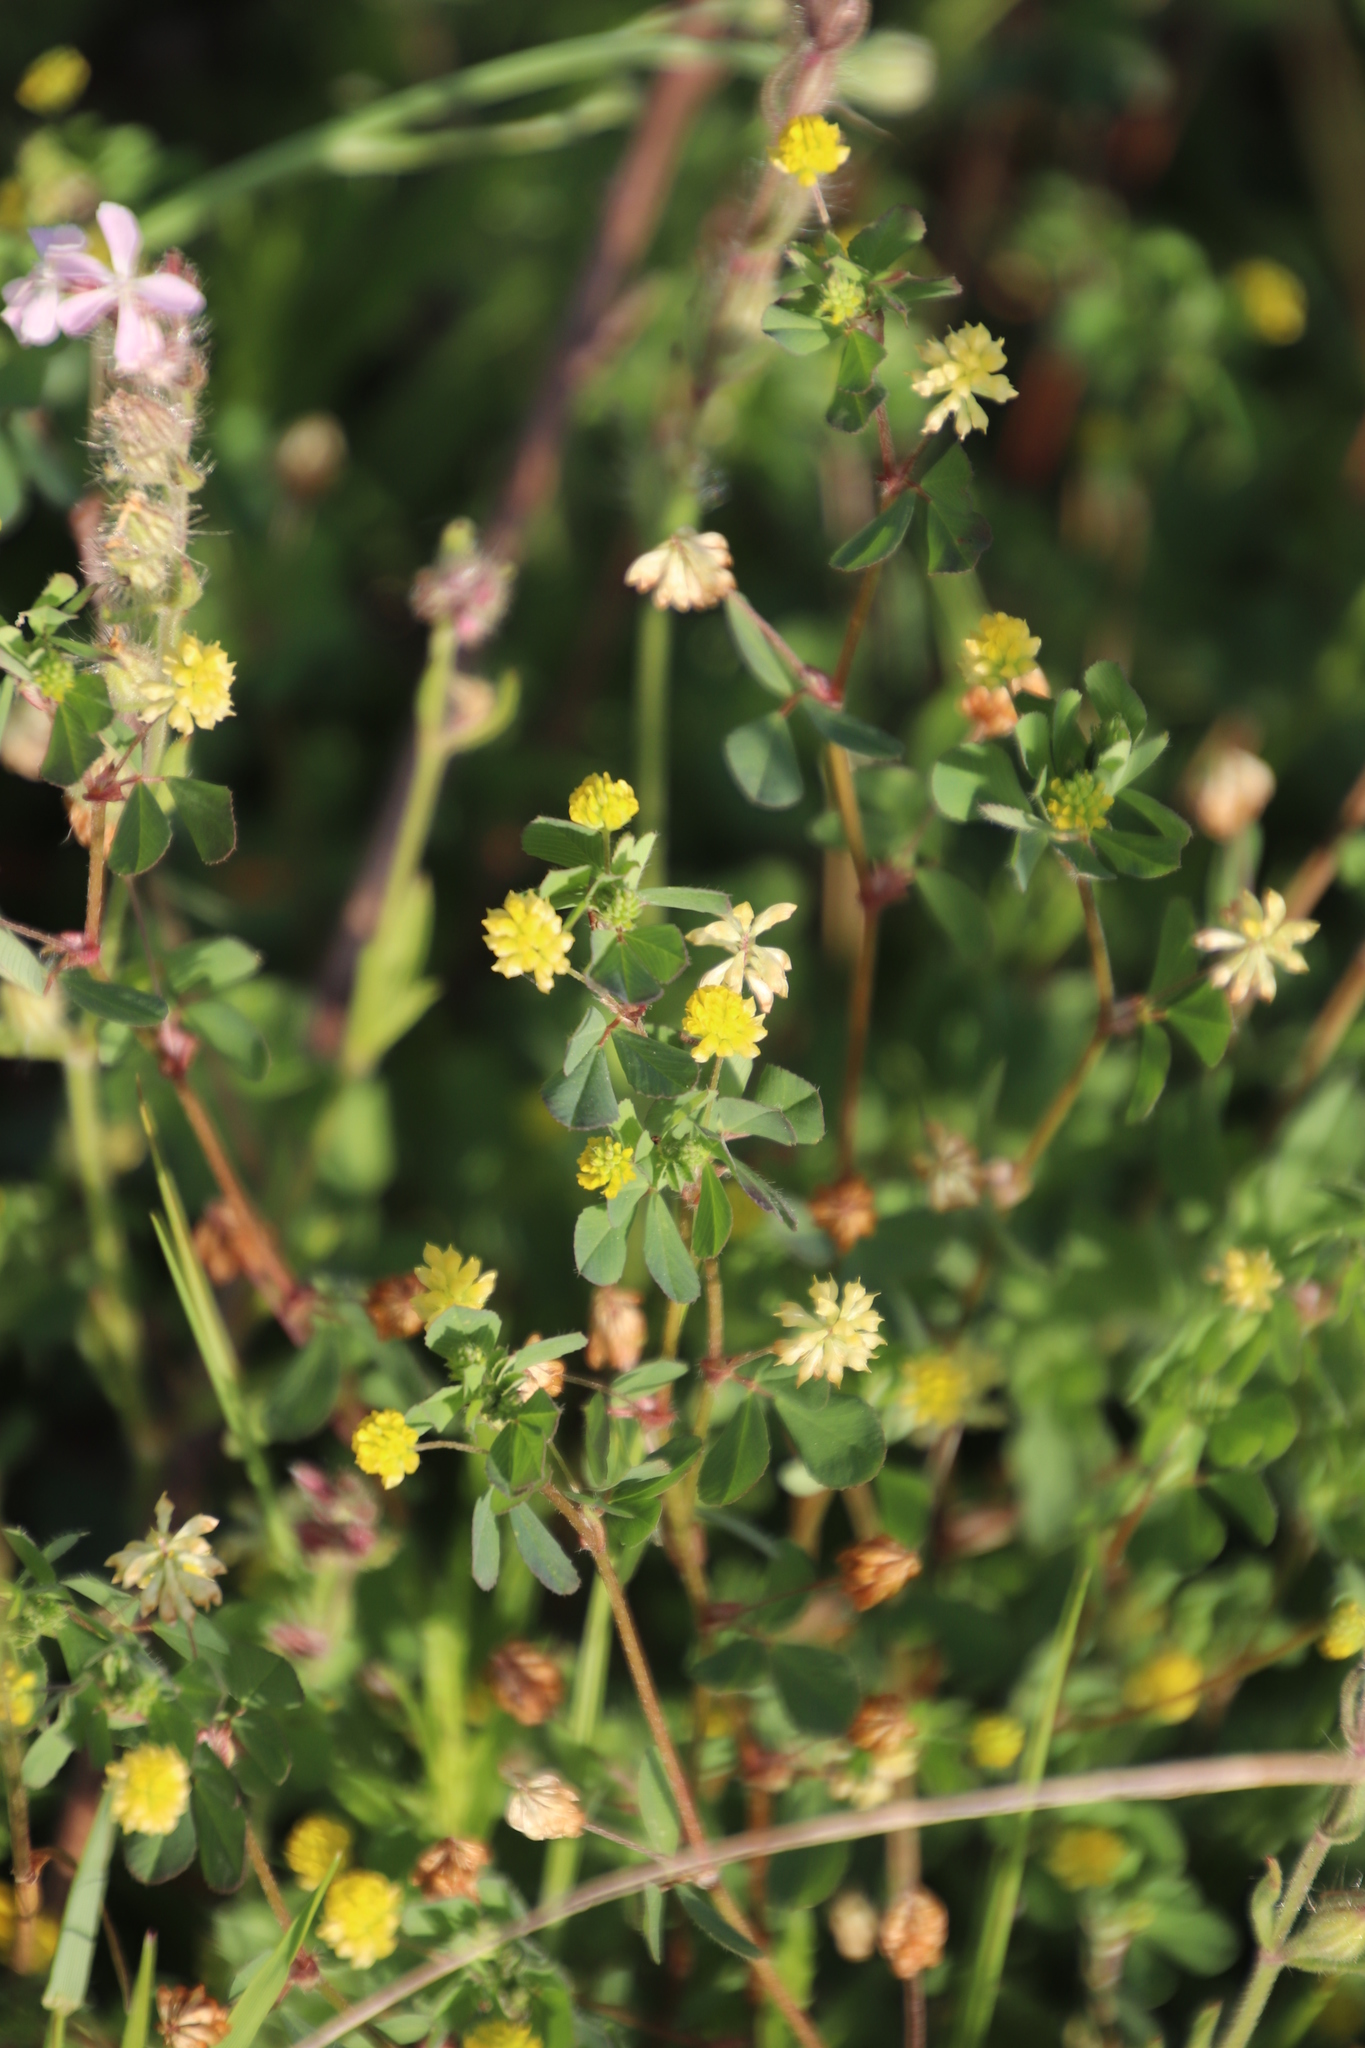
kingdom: Plantae
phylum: Tracheophyta
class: Magnoliopsida
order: Fabales
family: Fabaceae
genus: Trifolium
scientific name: Trifolium dubium
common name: Suckling clover
